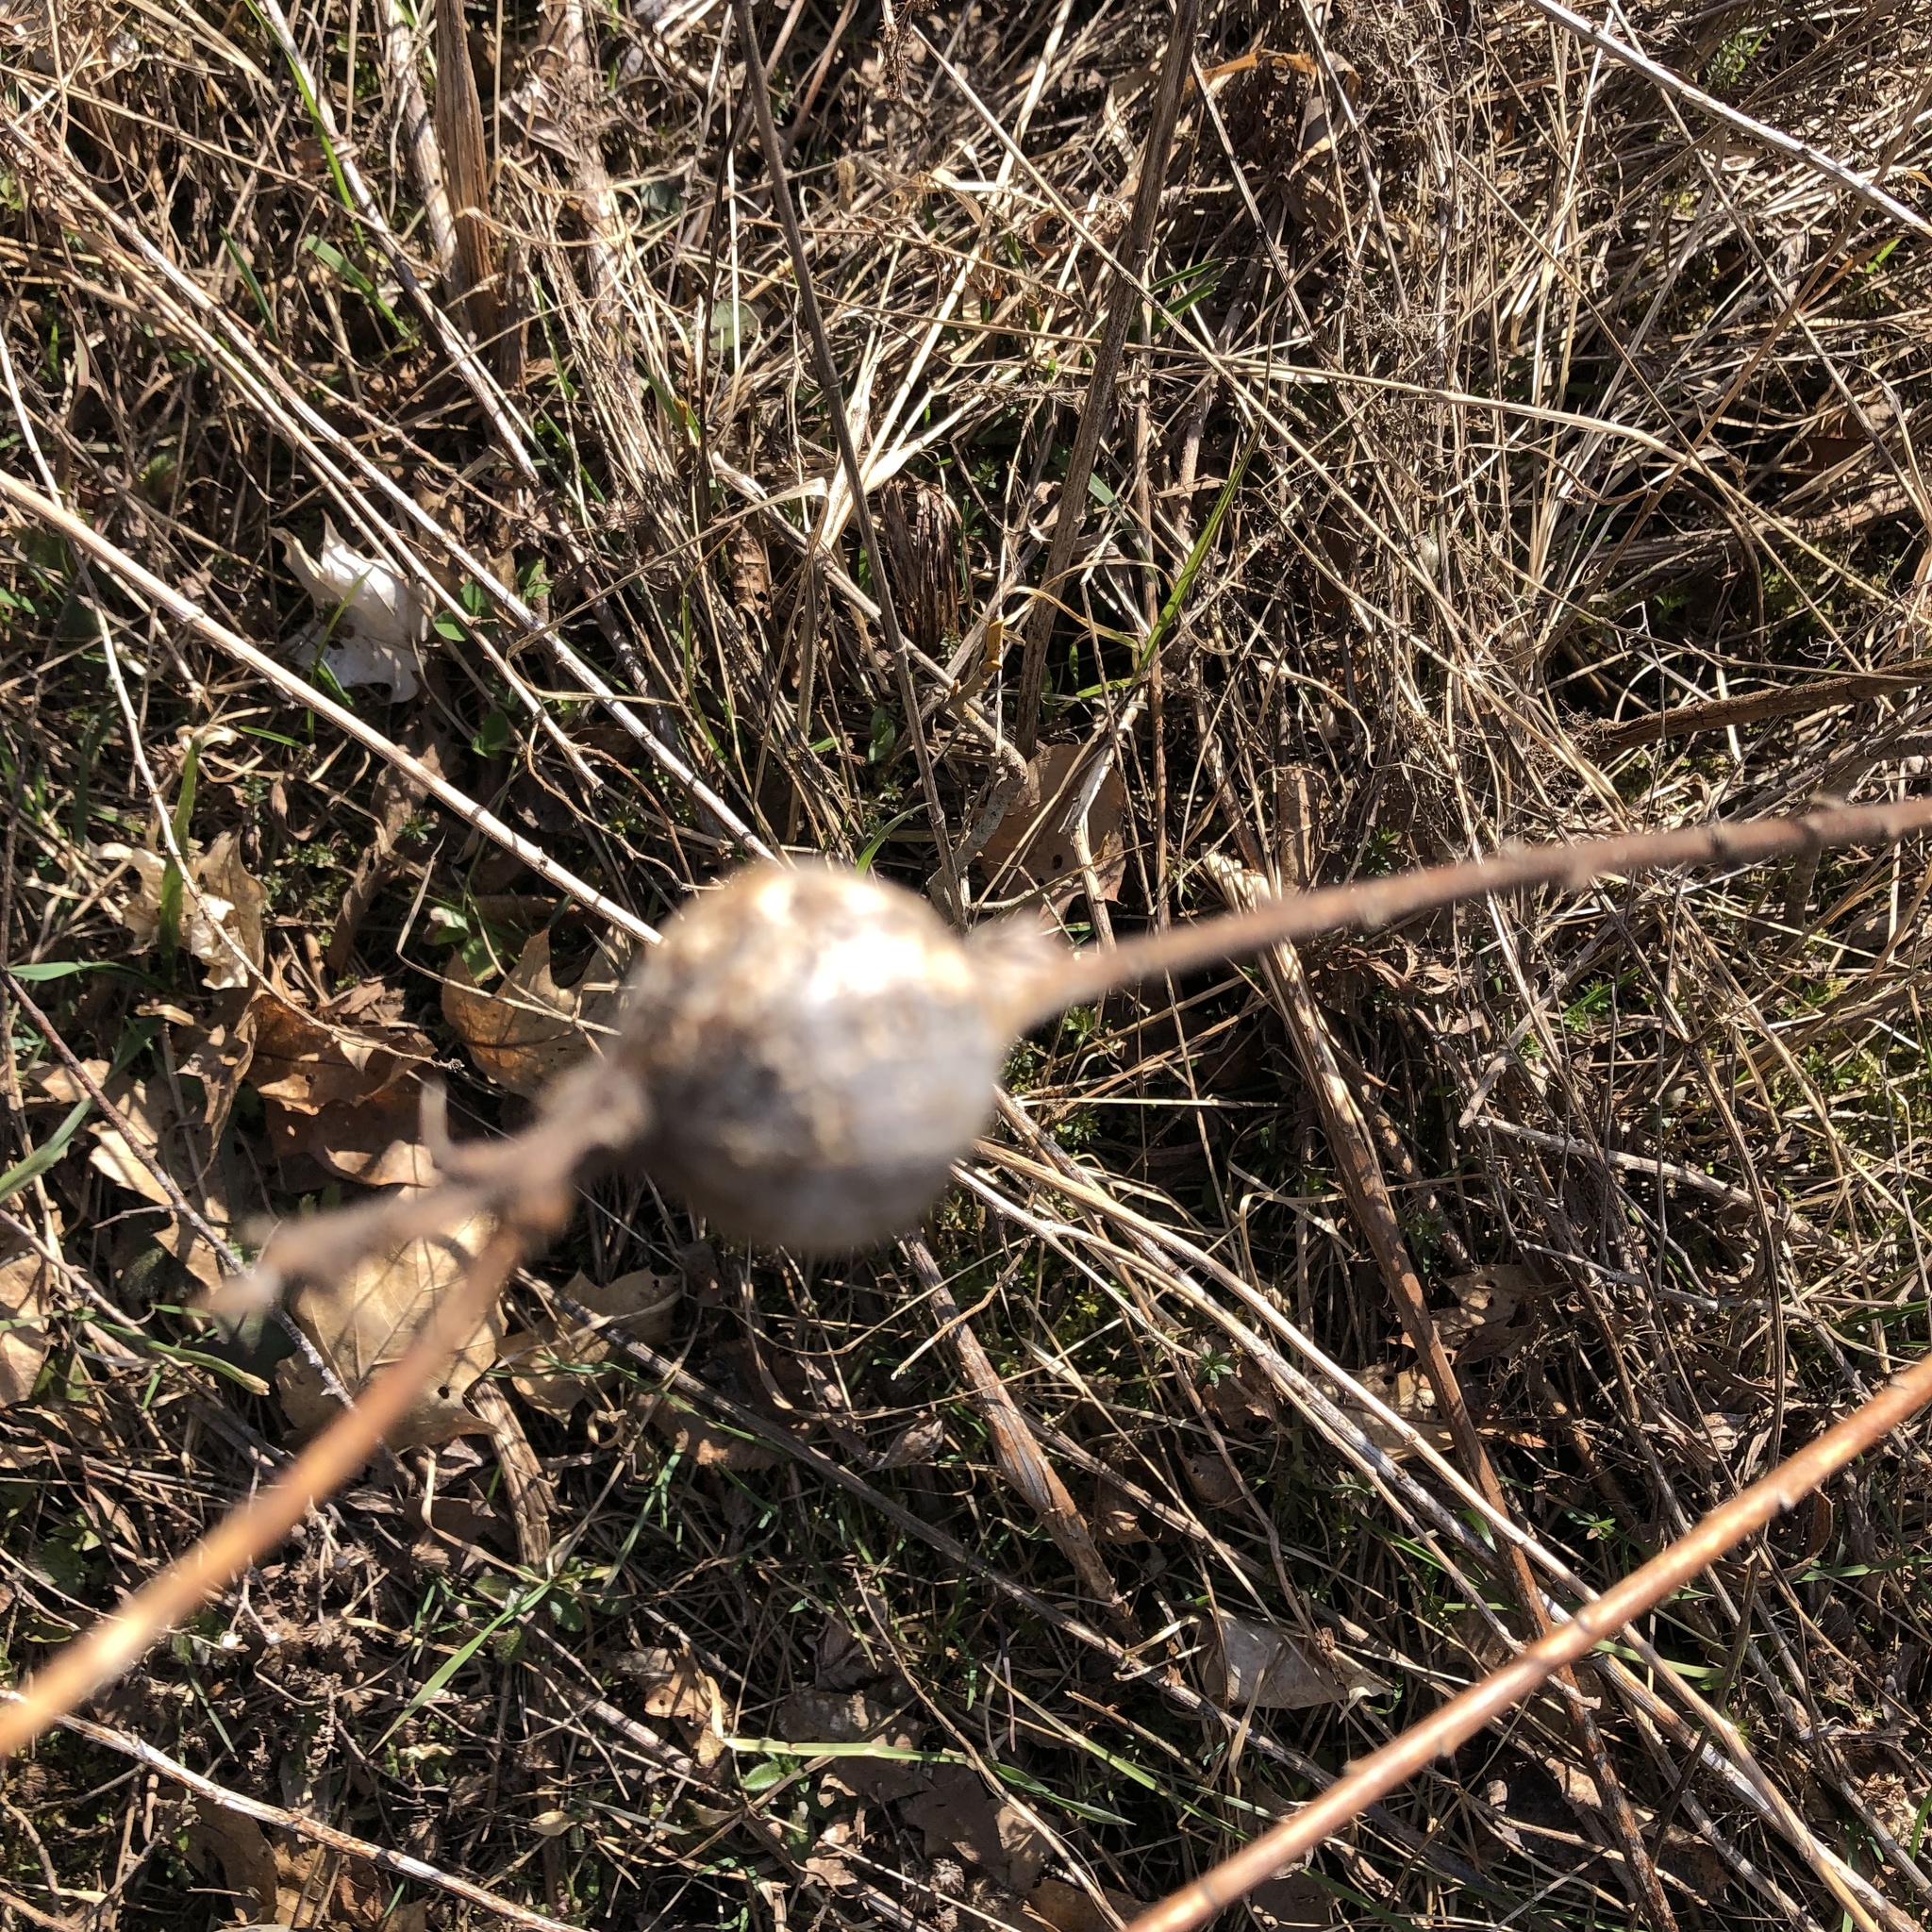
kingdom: Animalia
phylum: Arthropoda
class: Insecta
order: Diptera
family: Tephritidae
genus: Eurosta
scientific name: Eurosta solidaginis
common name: Goldenrod gall fly
